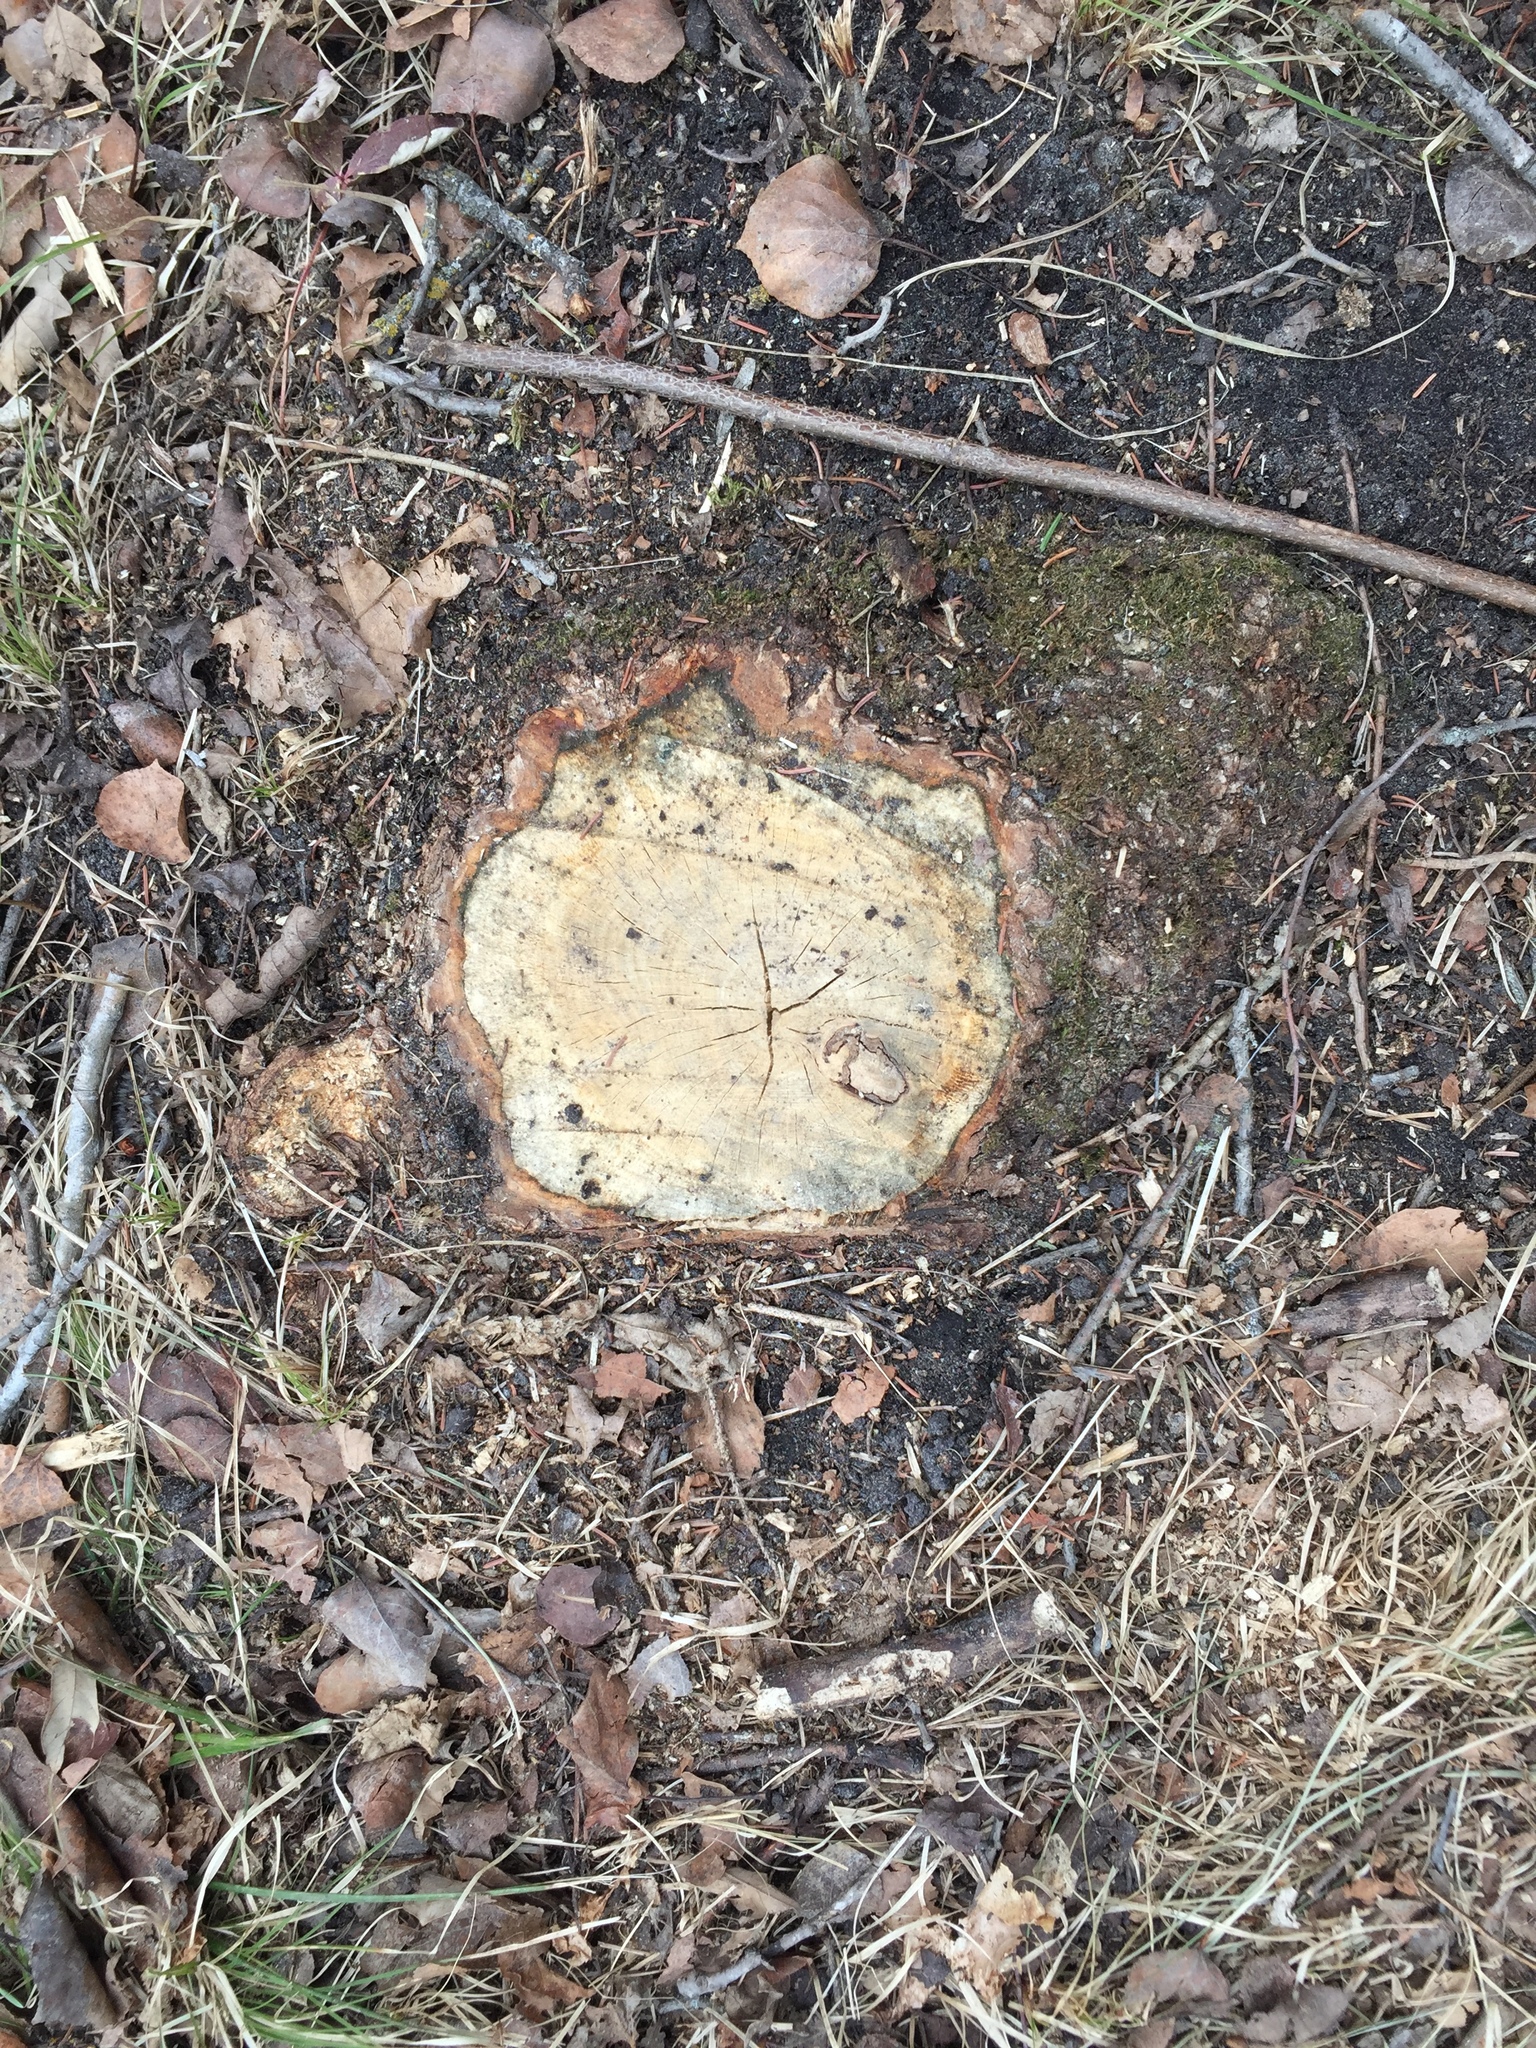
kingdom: Plantae
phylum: Tracheophyta
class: Magnoliopsida
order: Fagales
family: Fagaceae
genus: Quercus
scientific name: Quercus macrocarpa
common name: Bur oak
